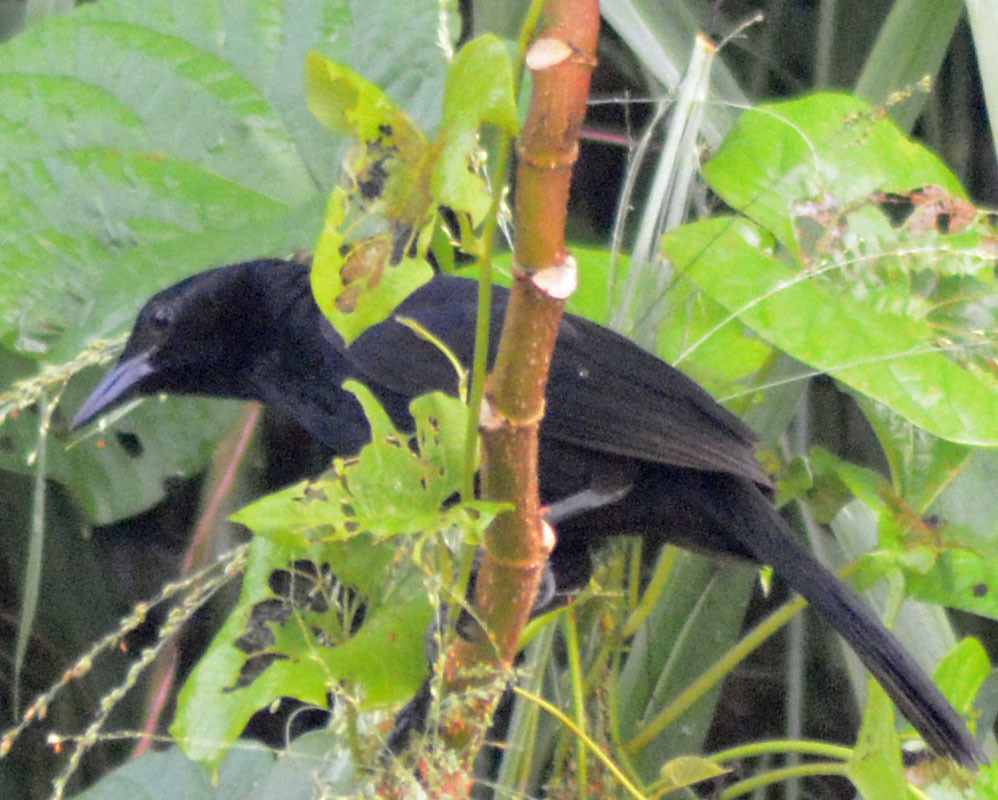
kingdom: Animalia
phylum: Chordata
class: Aves
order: Passeriformes
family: Icteridae
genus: Dives
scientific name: Dives dives
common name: Melodious blackbird
